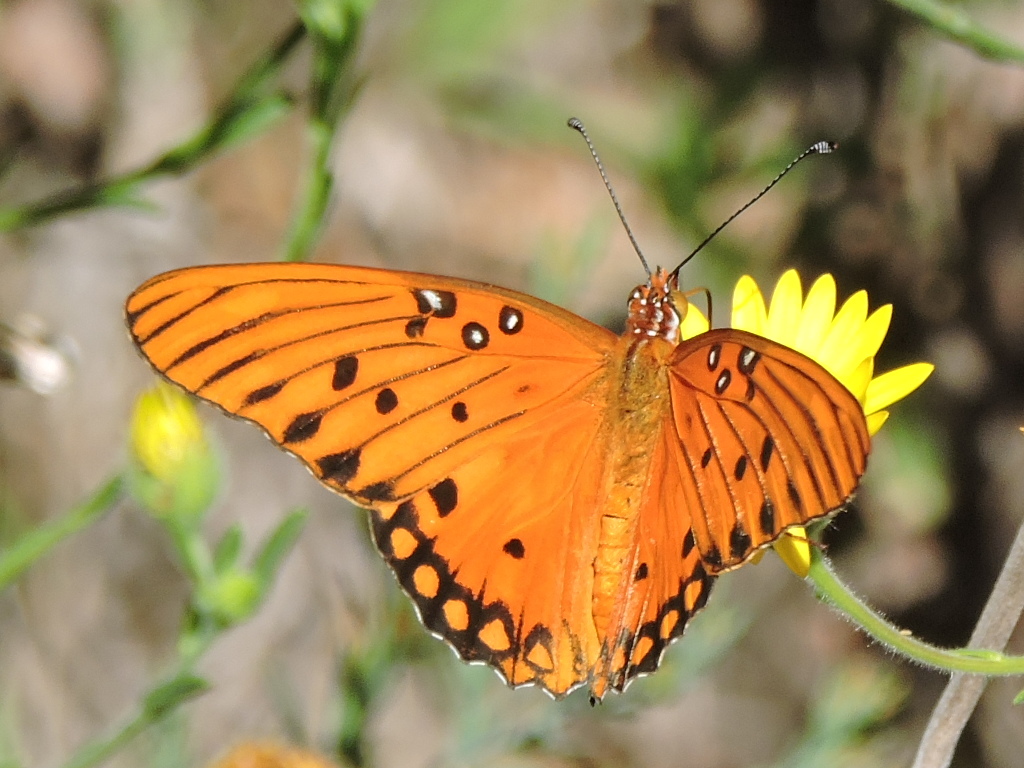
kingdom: Animalia
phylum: Arthropoda
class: Insecta
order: Lepidoptera
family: Nymphalidae
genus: Dione
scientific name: Dione vanillae
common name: Gulf fritillary
